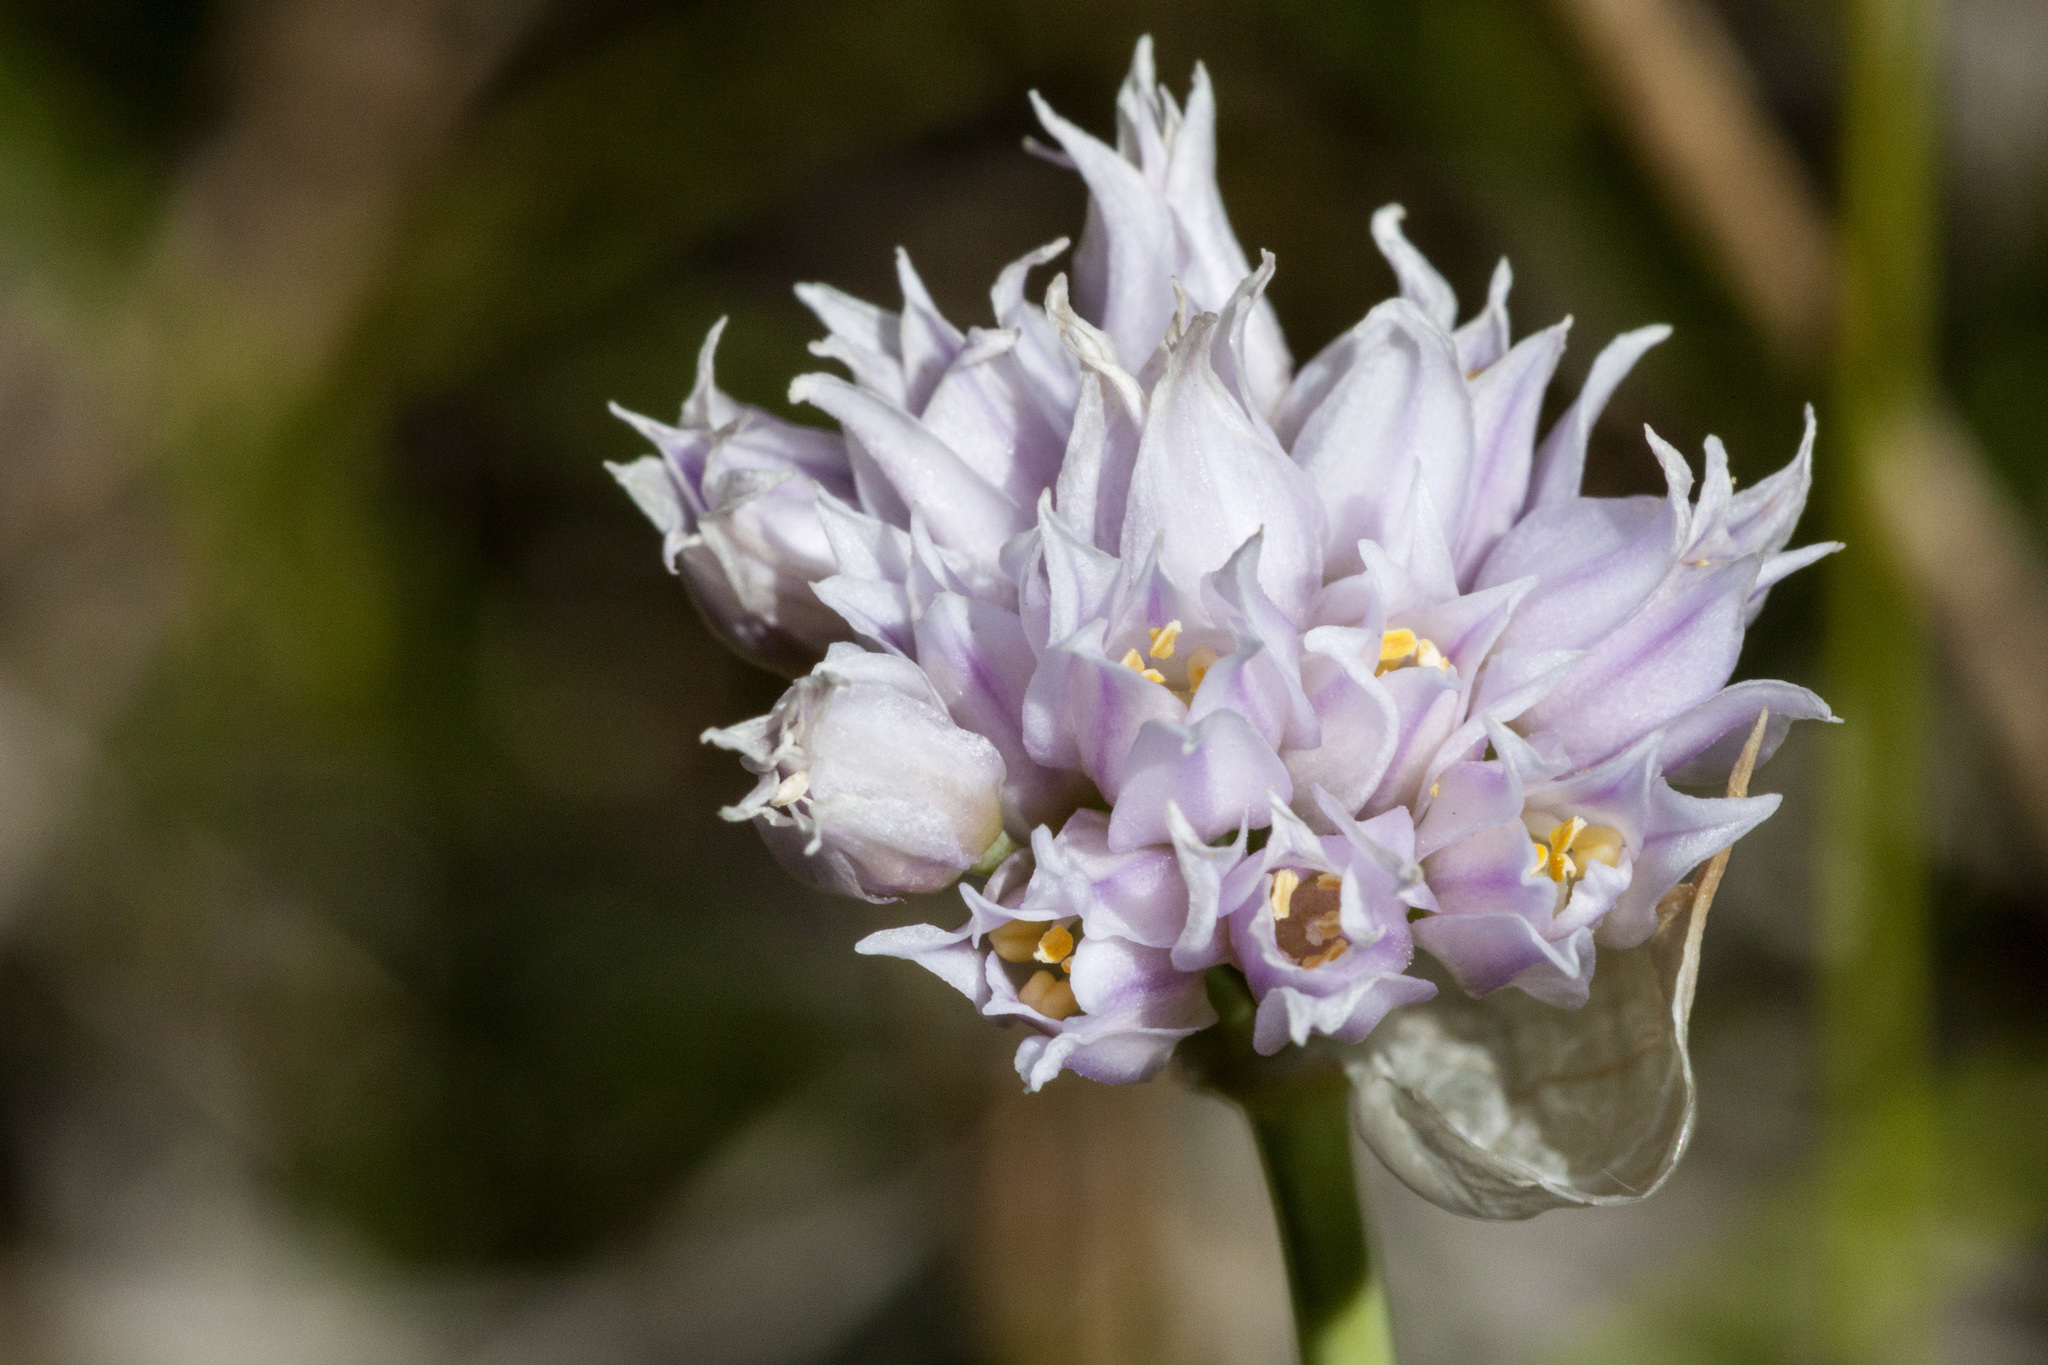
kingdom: Plantae
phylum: Tracheophyta
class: Liliopsida
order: Asparagales
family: Amaryllidaceae
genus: Allium
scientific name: Allium geyeri
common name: Geyer's onion
